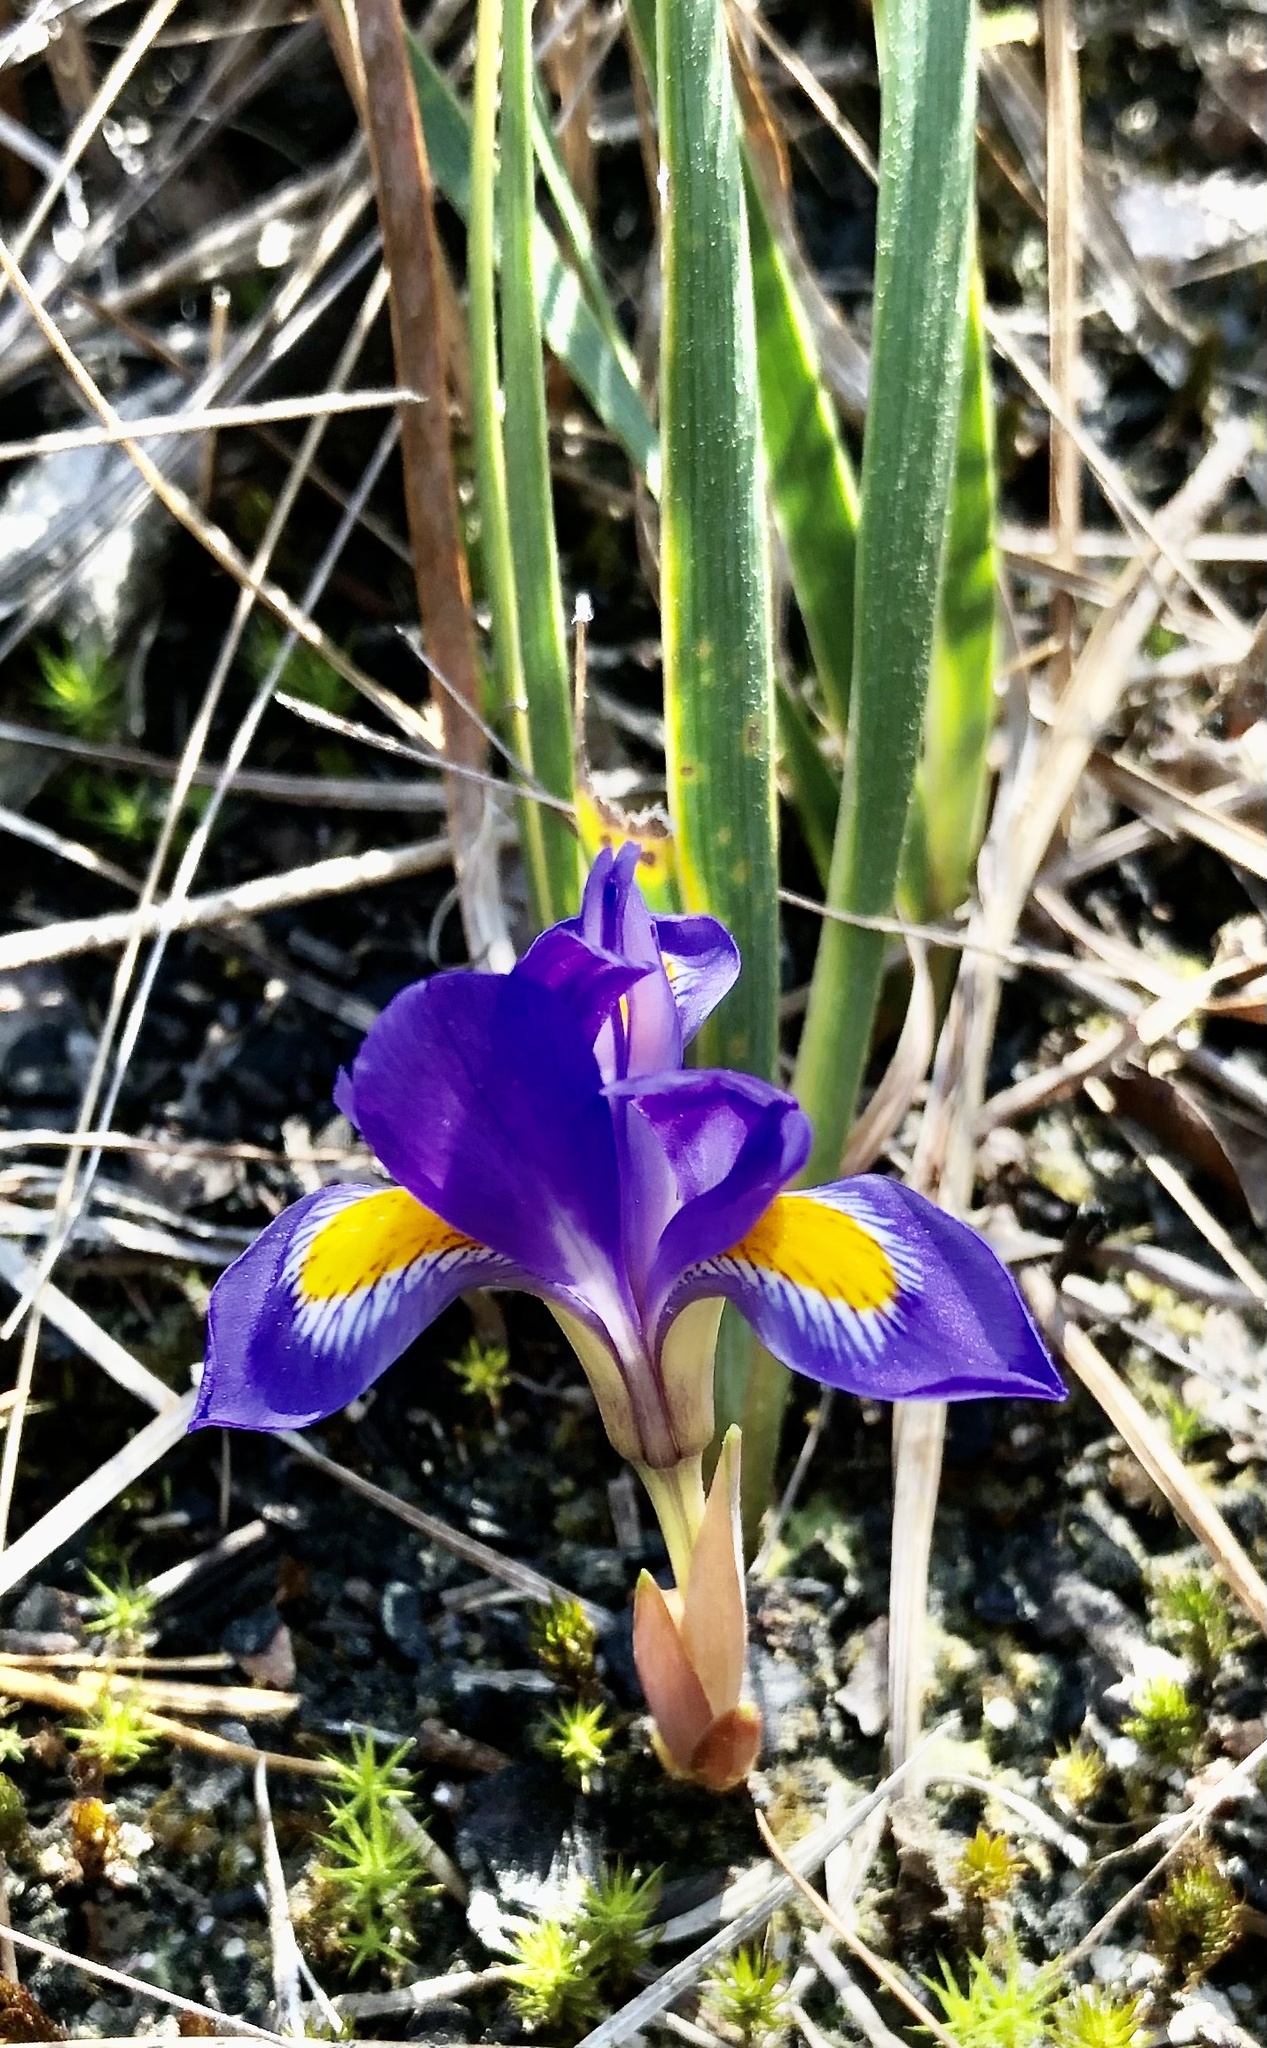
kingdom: Plantae
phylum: Tracheophyta
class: Liliopsida
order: Asparagales
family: Iridaceae
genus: Iris
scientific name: Iris verna
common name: Dwarf iris
